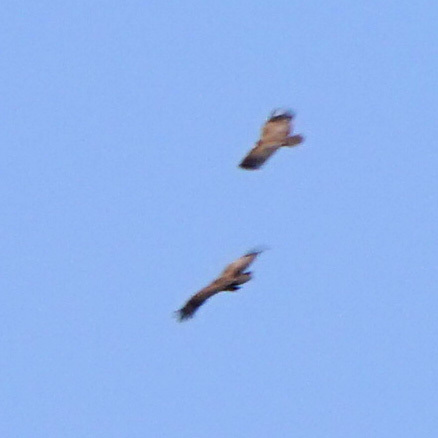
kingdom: Animalia
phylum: Chordata
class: Aves
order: Accipitriformes
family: Accipitridae
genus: Necrosyrtes
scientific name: Necrosyrtes monachus
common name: Hooded vulture
